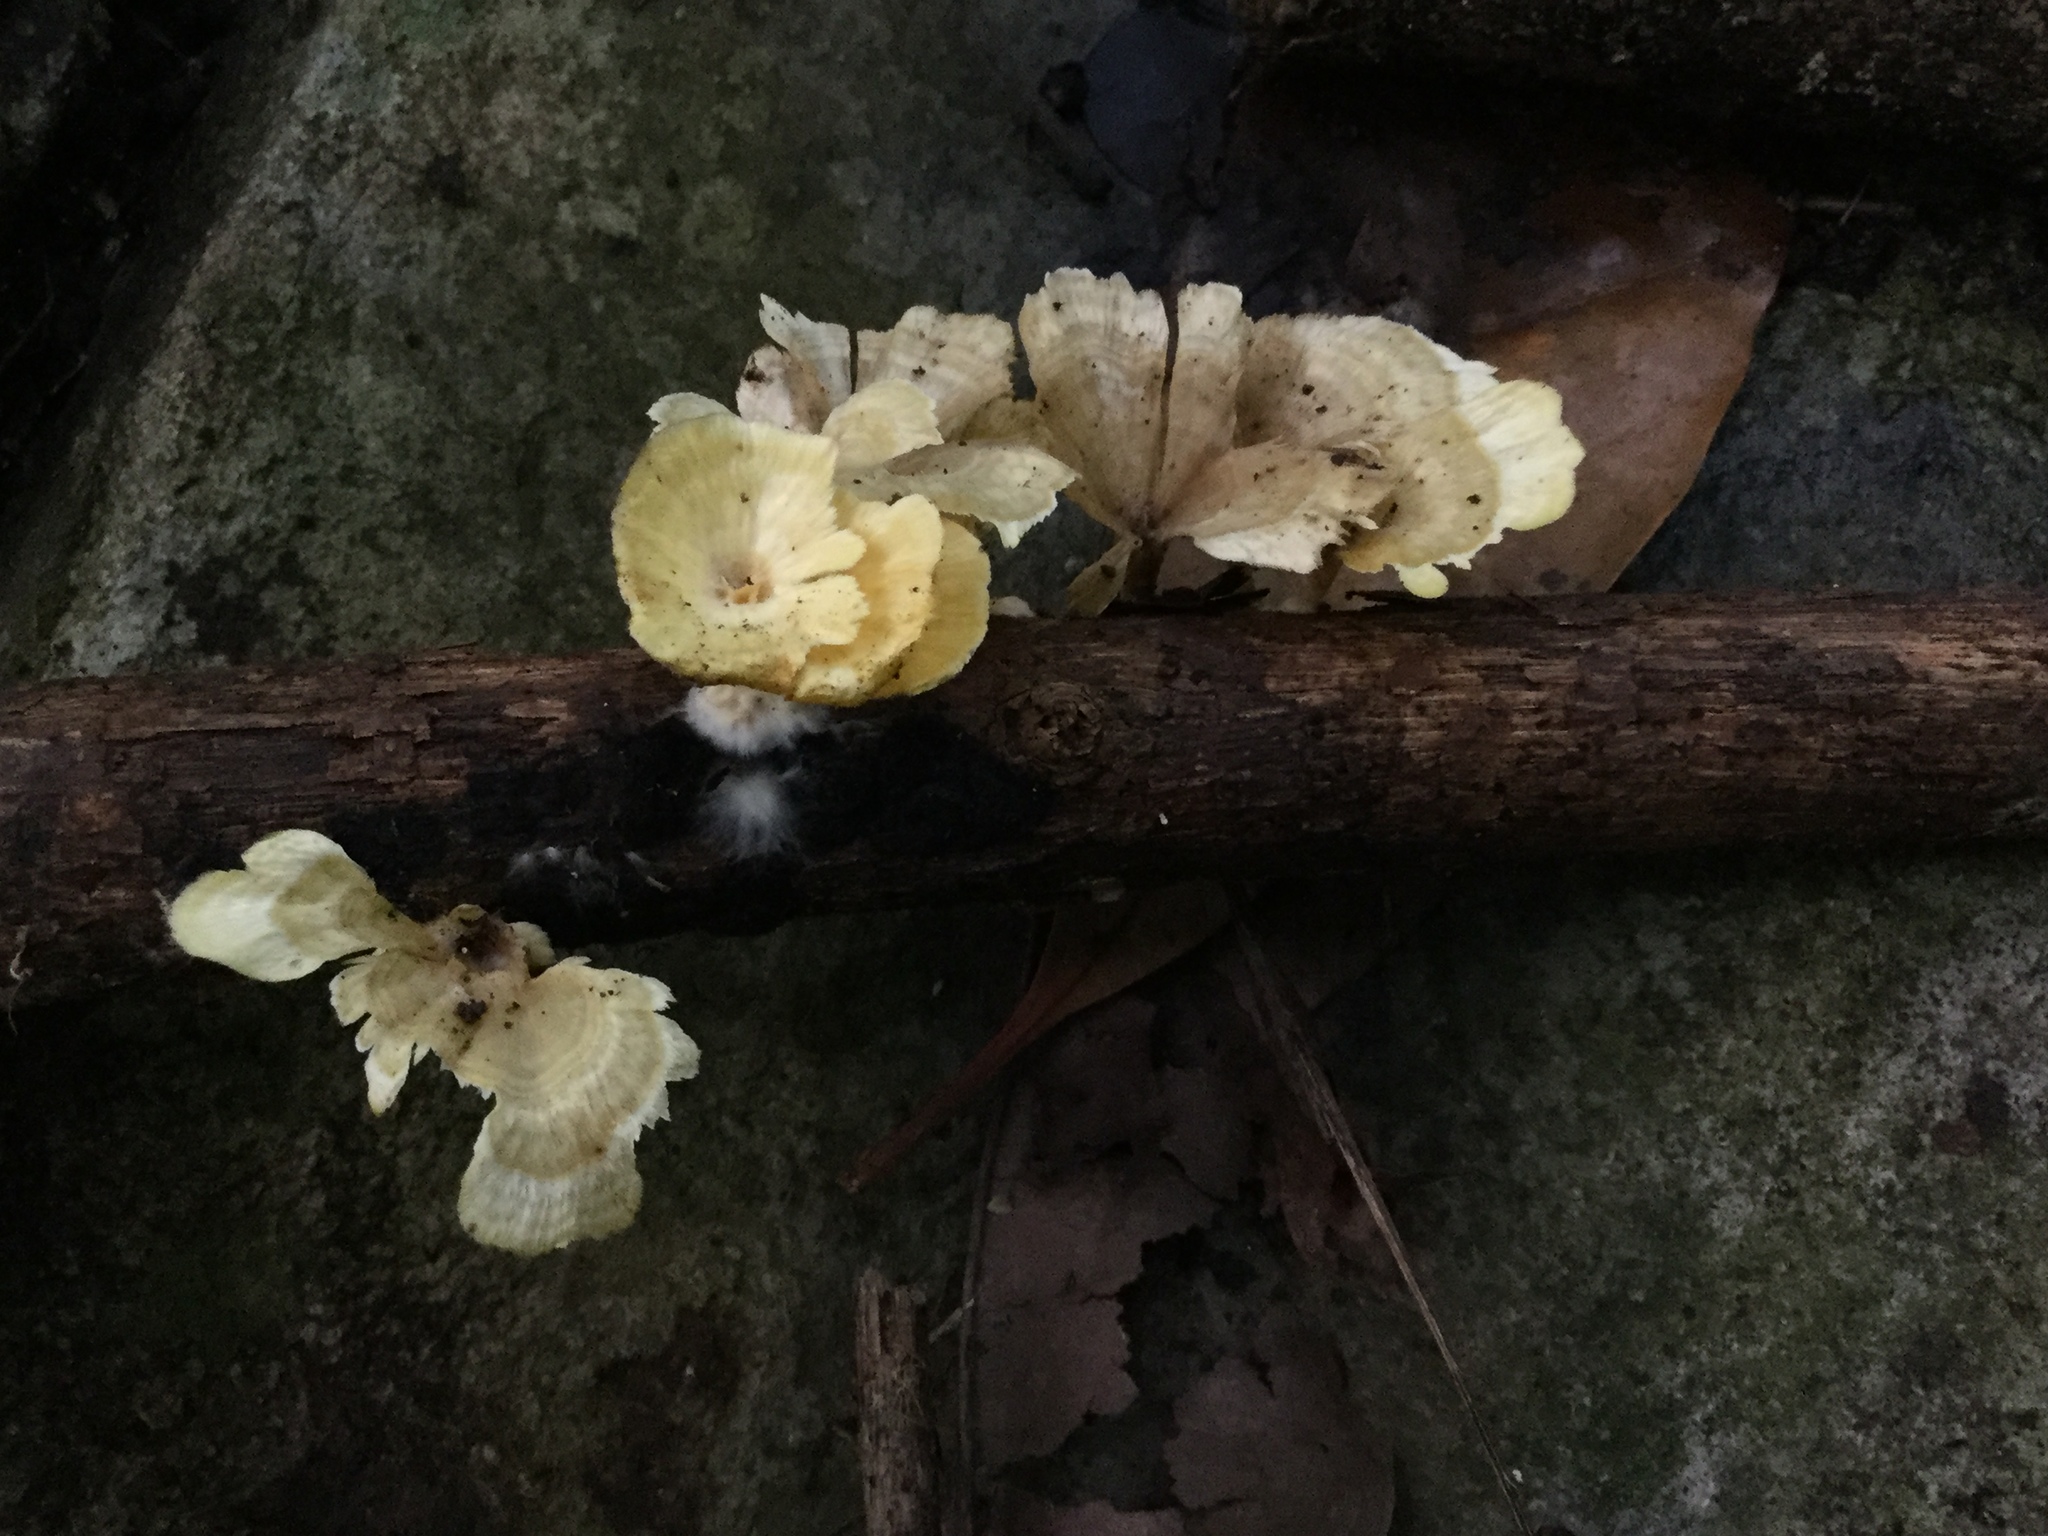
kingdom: Fungi
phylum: Basidiomycota
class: Agaricomycetes
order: Hymenochaetales
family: Rickenellaceae
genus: Cotylidia
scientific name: Cotylidia aurantiaca
